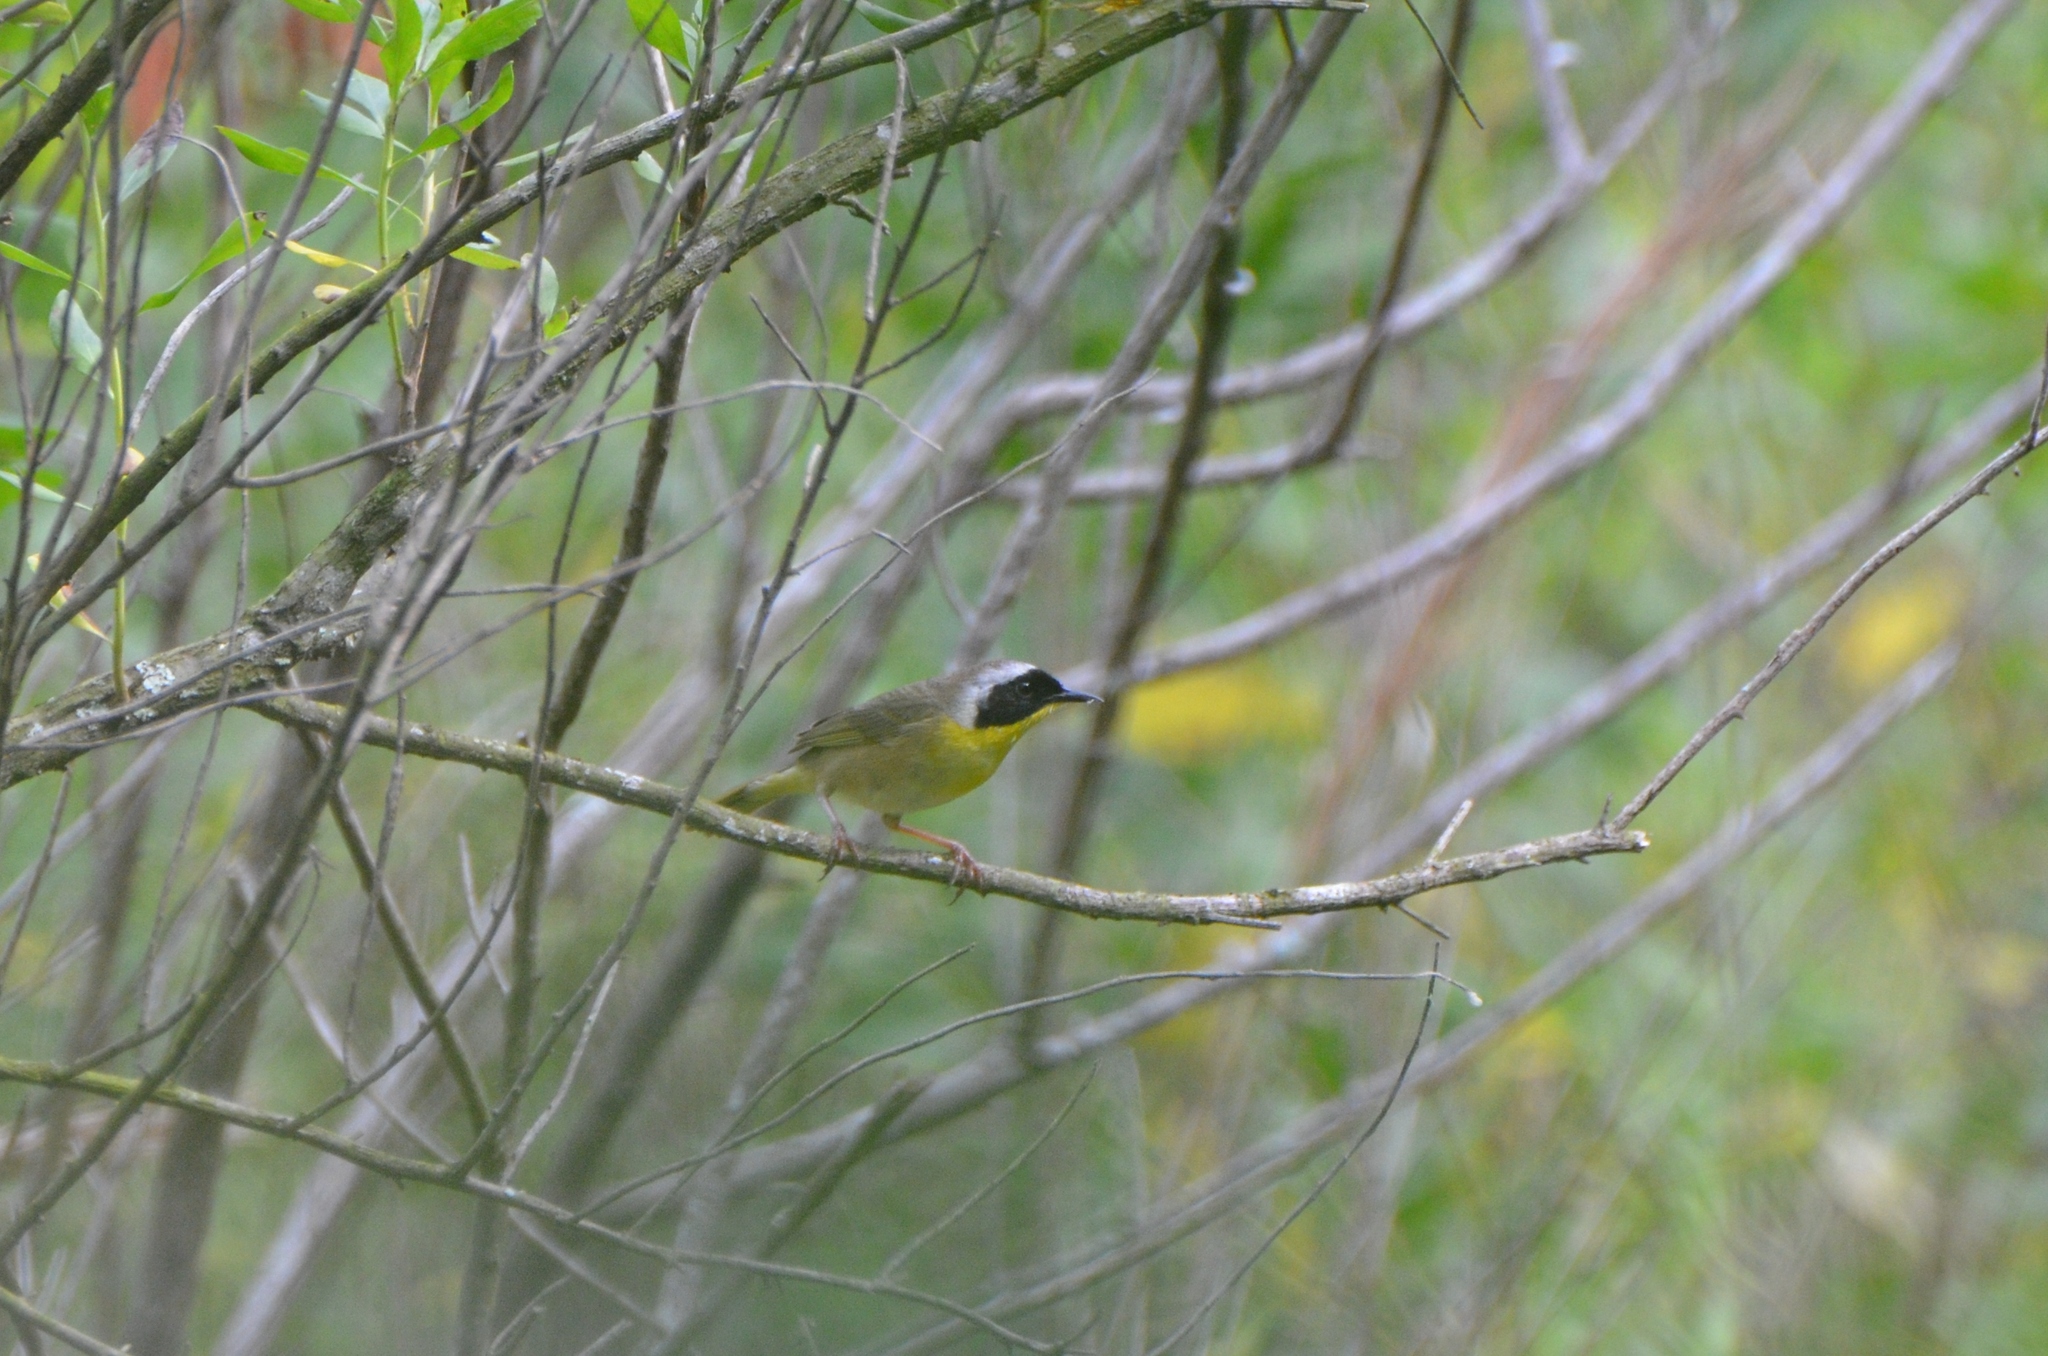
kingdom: Animalia
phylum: Chordata
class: Aves
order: Passeriformes
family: Parulidae
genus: Geothlypis
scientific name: Geothlypis trichas
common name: Common yellowthroat
